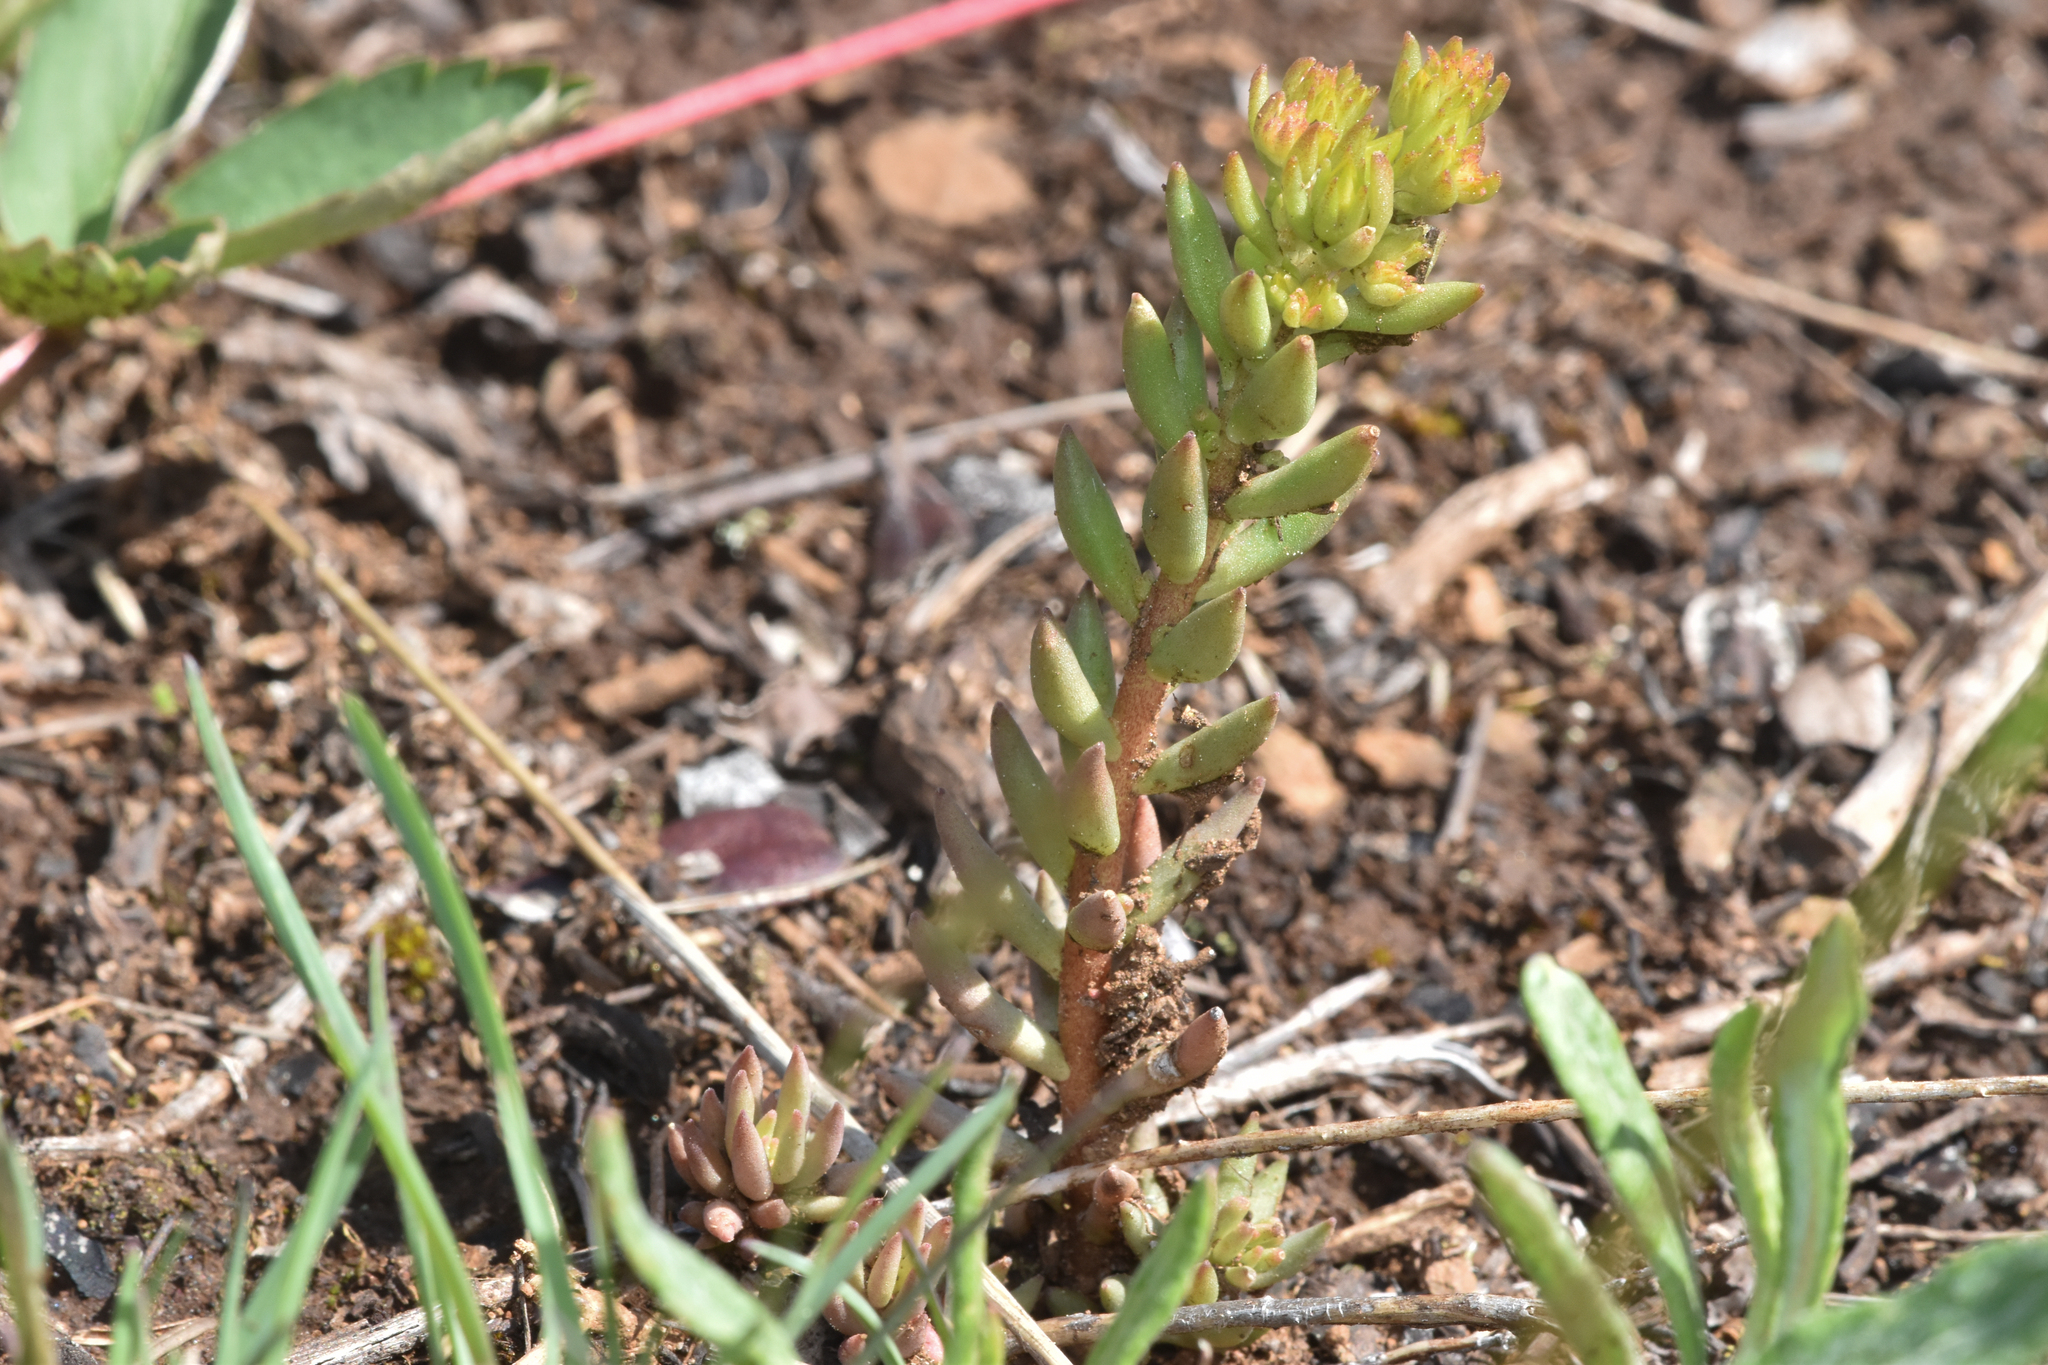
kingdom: Plantae
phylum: Tracheophyta
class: Magnoliopsida
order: Saxifragales
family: Crassulaceae
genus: Sedum
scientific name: Sedum lanceolatum
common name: Common stonecrop
